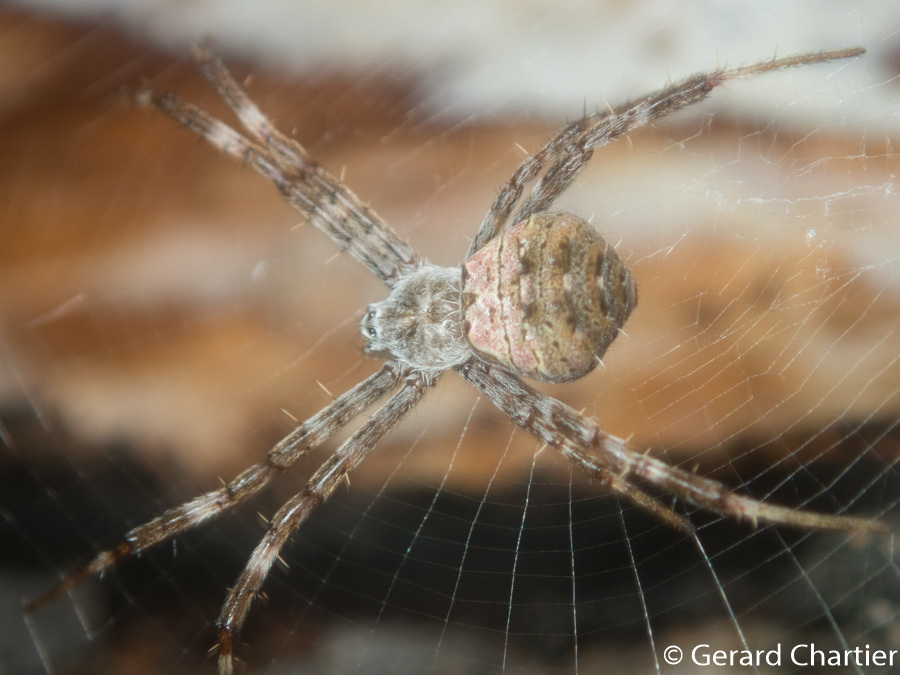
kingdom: Animalia
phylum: Arthropoda
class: Arachnida
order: Araneae
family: Araneidae
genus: Argiope
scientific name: Argiope hoiseni
